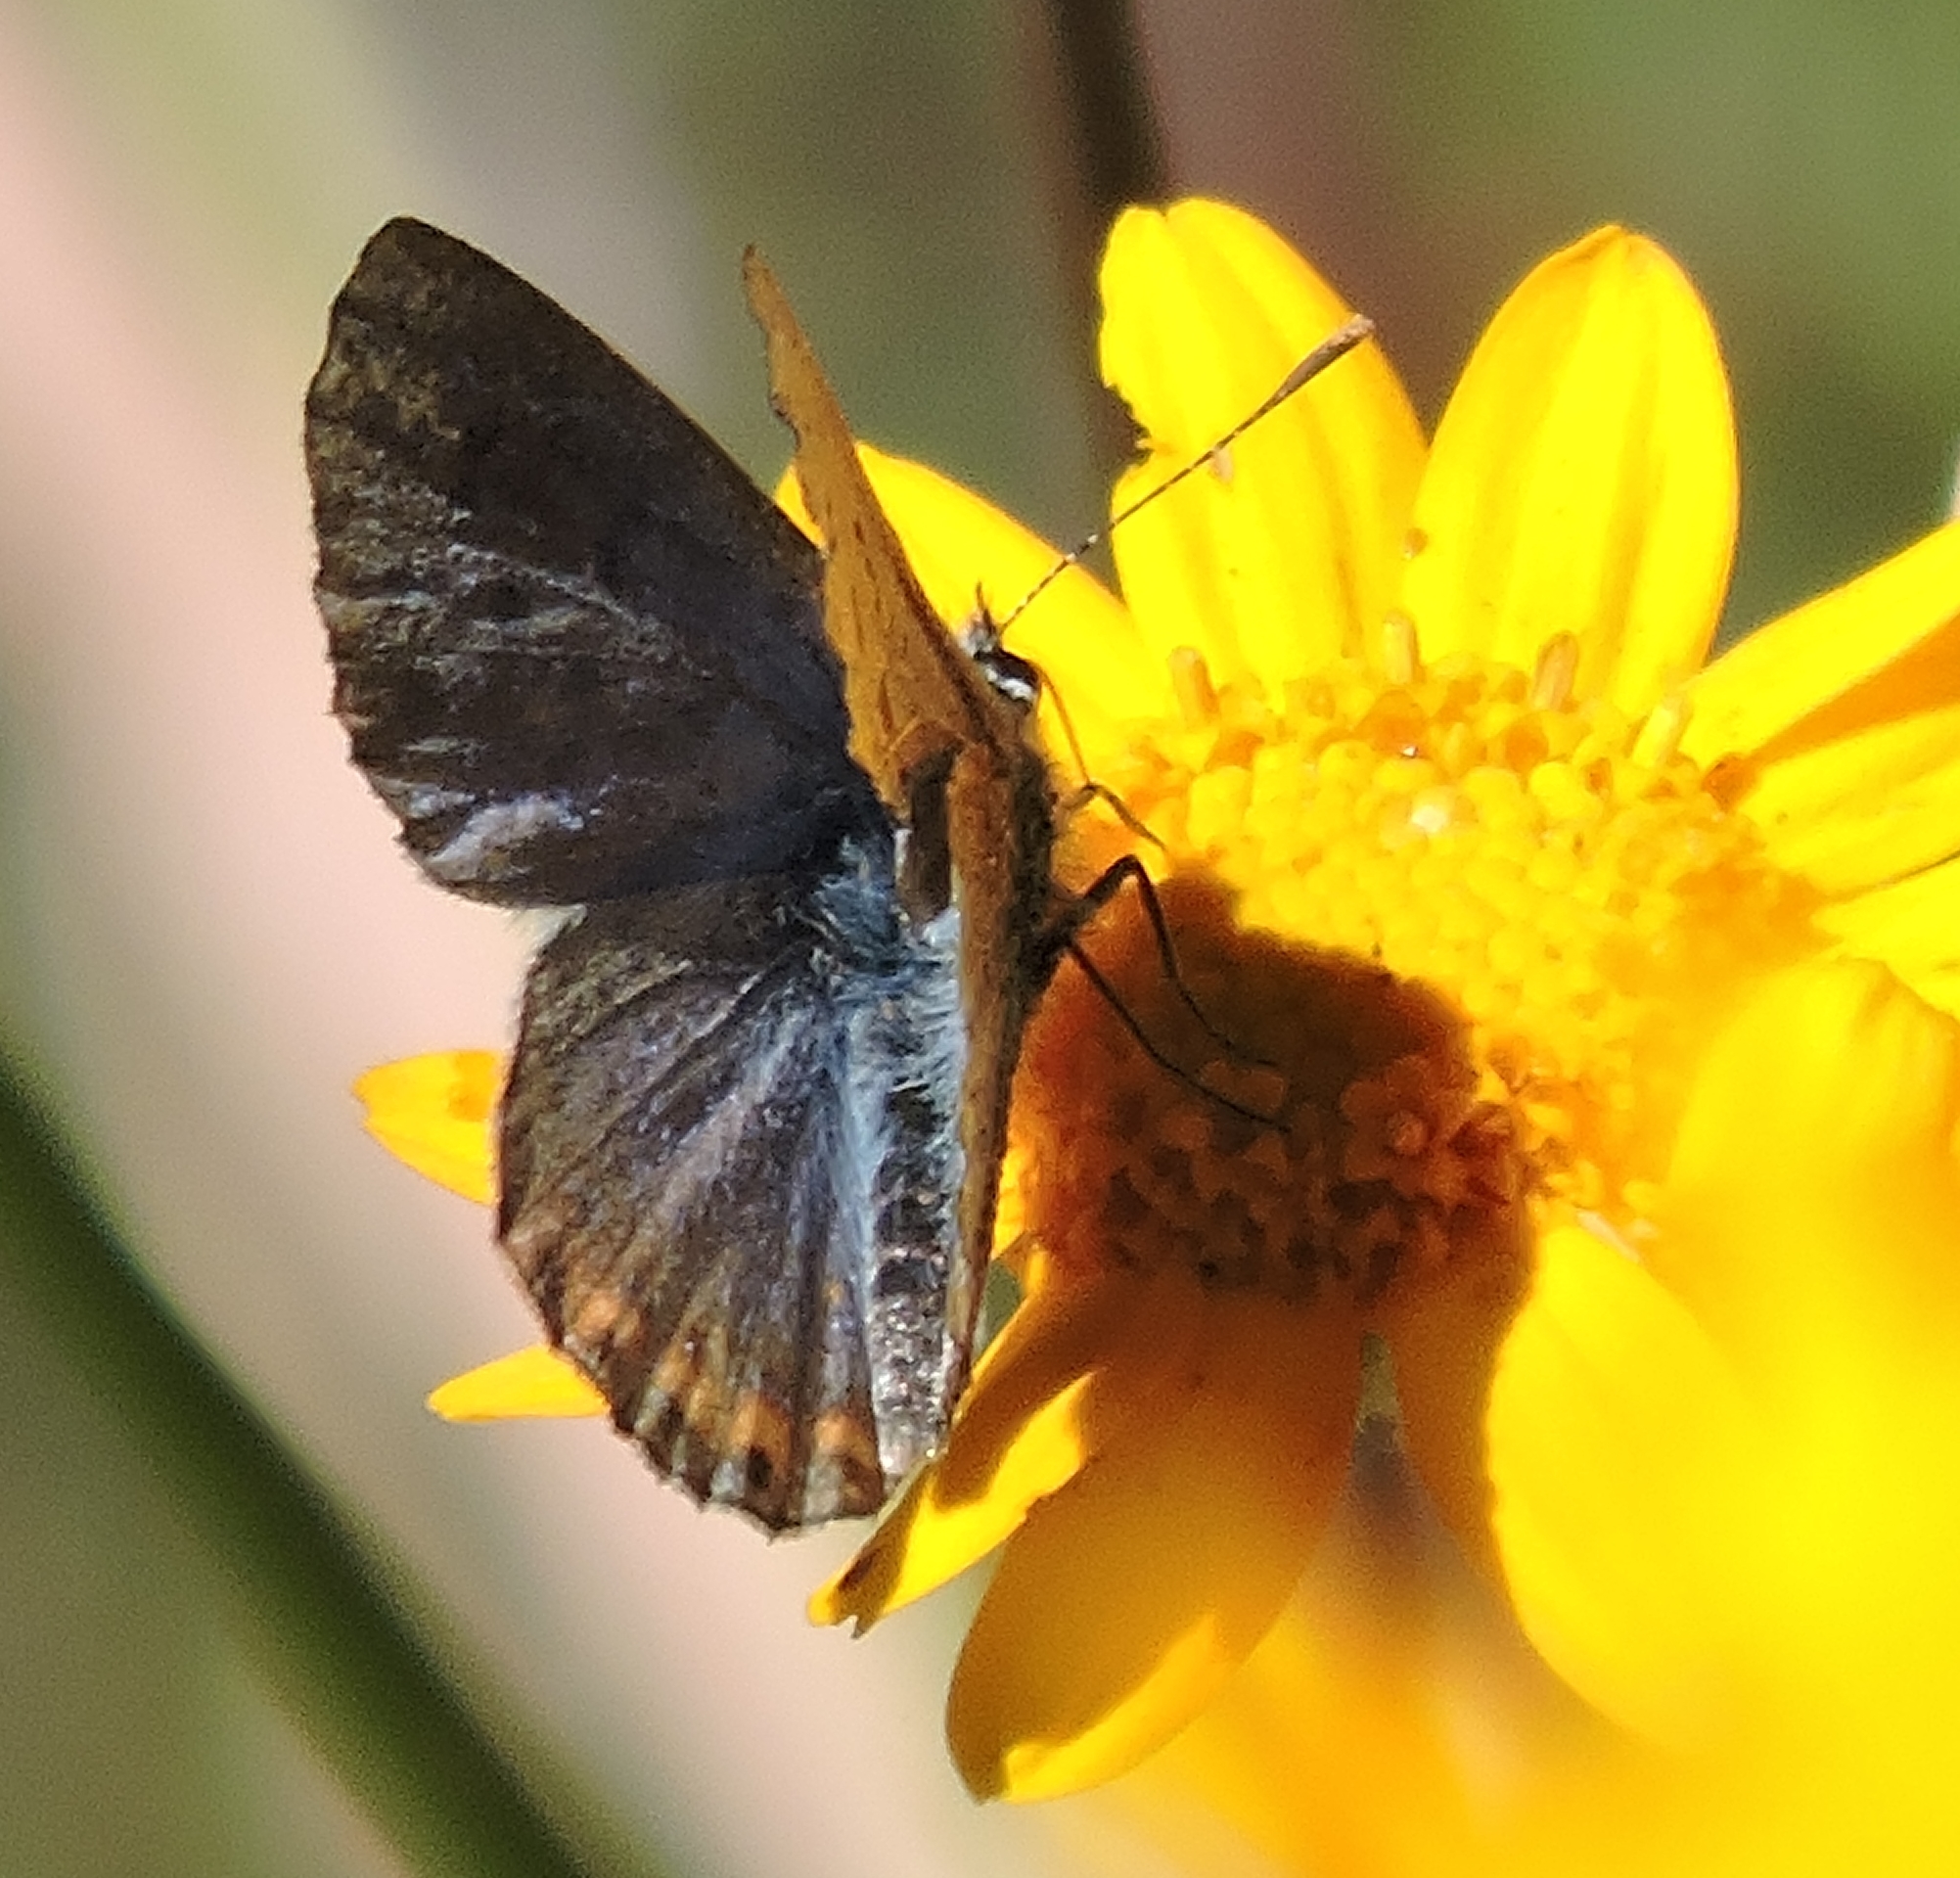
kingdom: Animalia
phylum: Arthropoda
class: Insecta
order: Lepidoptera
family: Lycaenidae
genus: Icaricia
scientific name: Icaricia acmon
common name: Acmon blue
